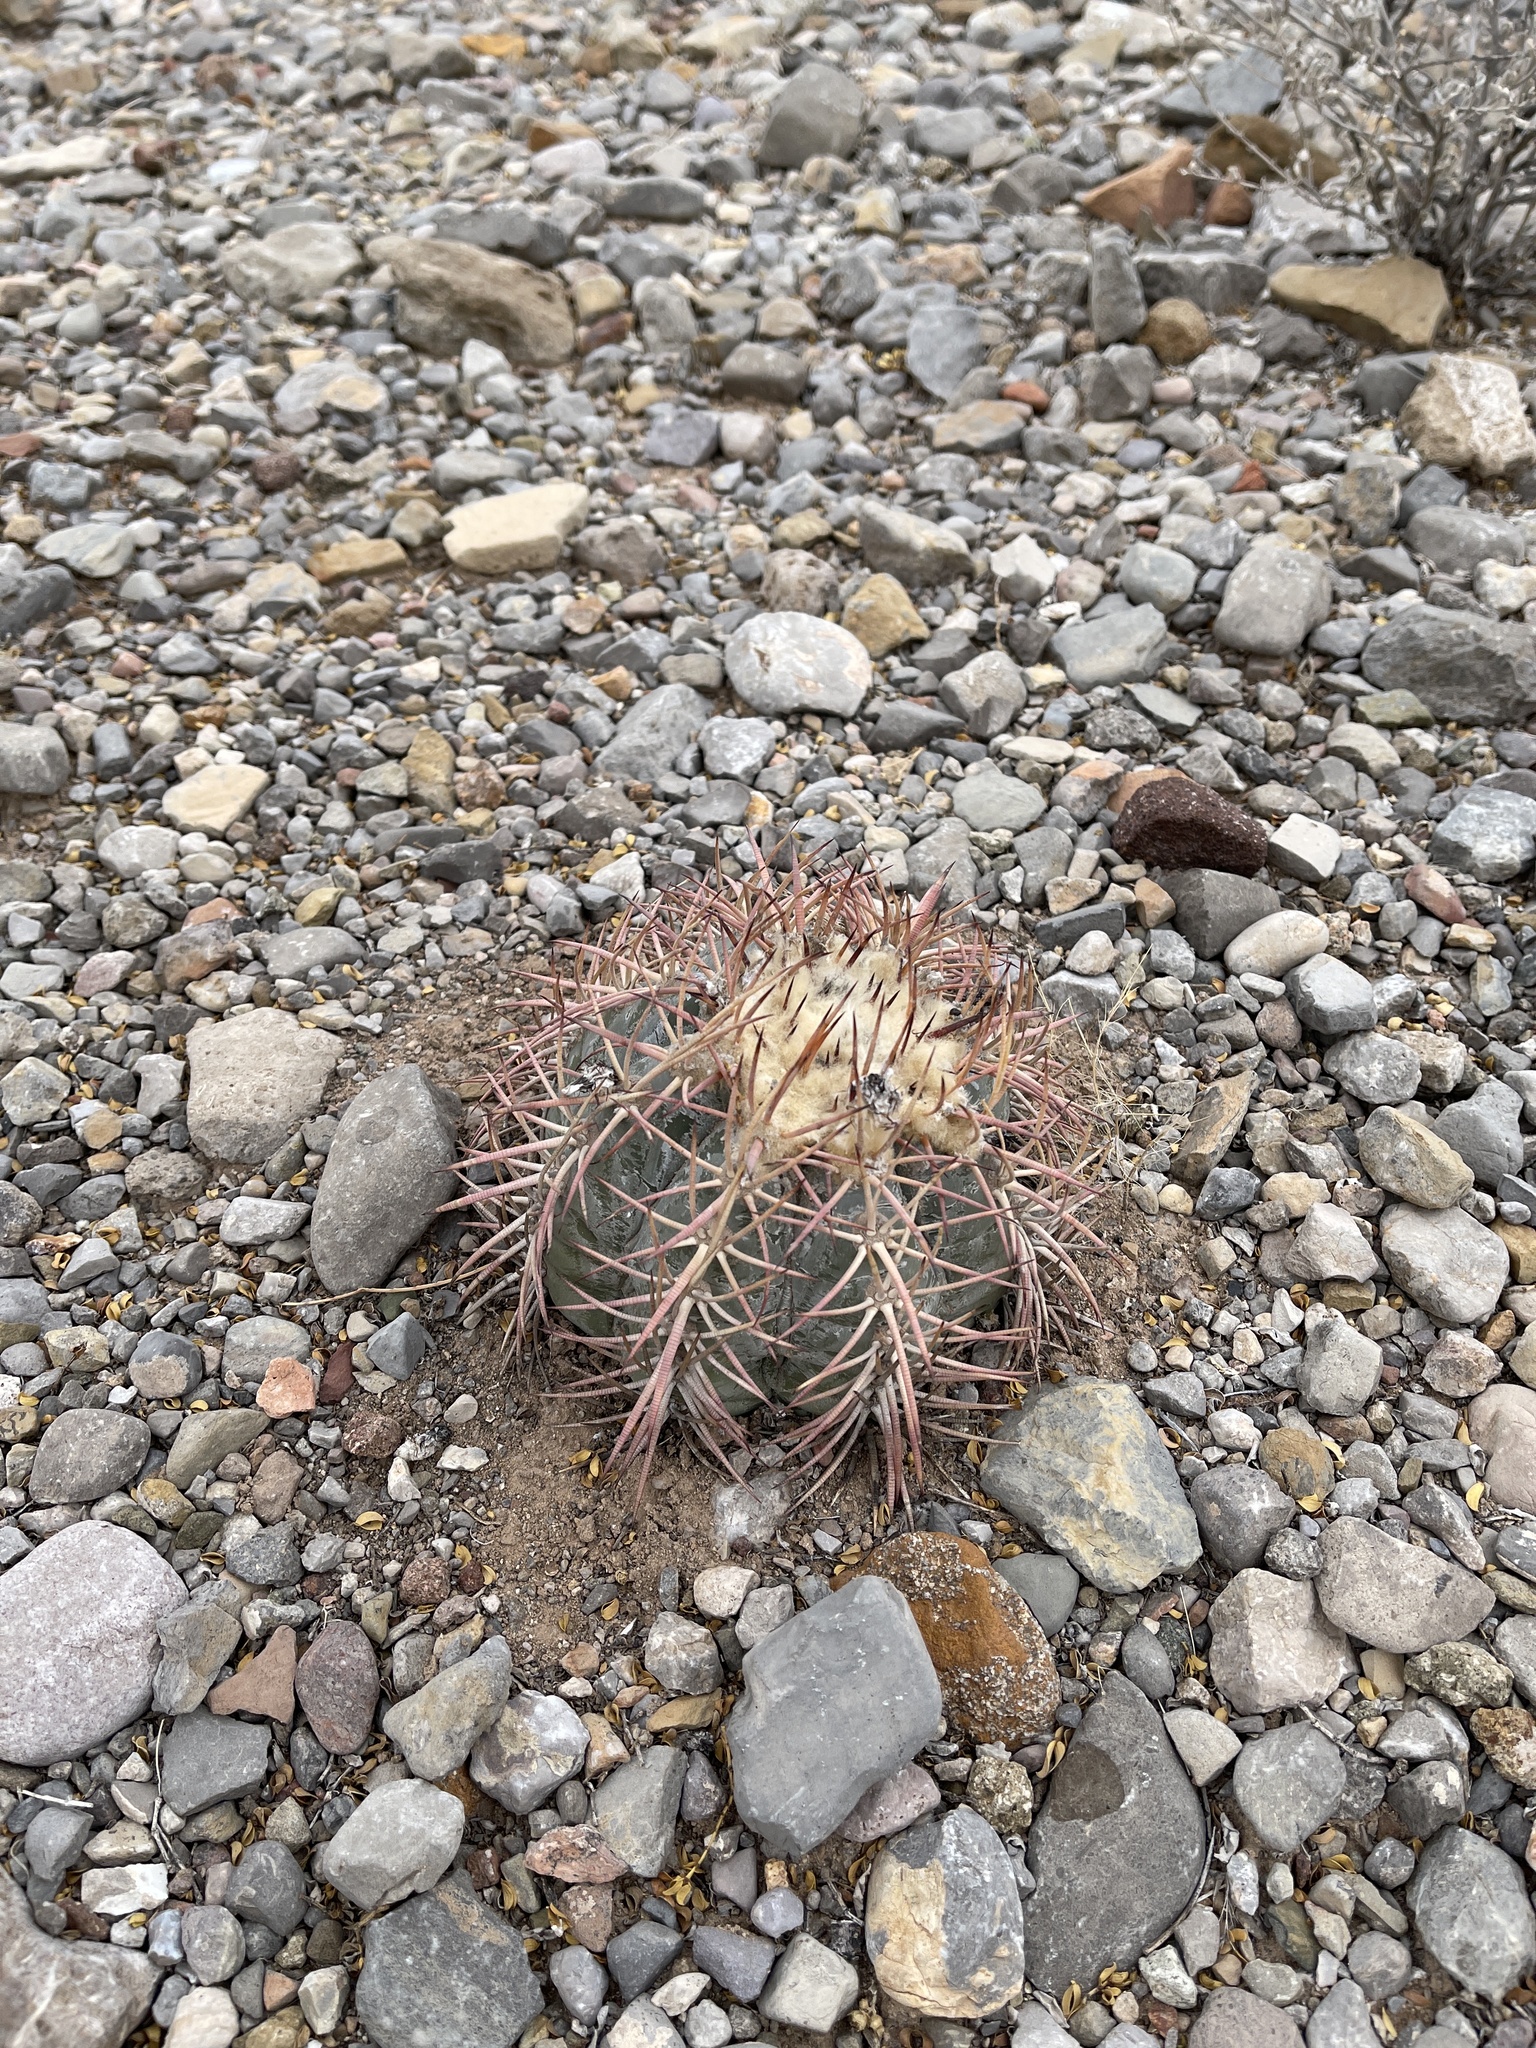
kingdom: Plantae
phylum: Tracheophyta
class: Magnoliopsida
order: Caryophyllales
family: Cactaceae
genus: Echinocactus
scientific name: Echinocactus horizonthalonius
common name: Devilshead
